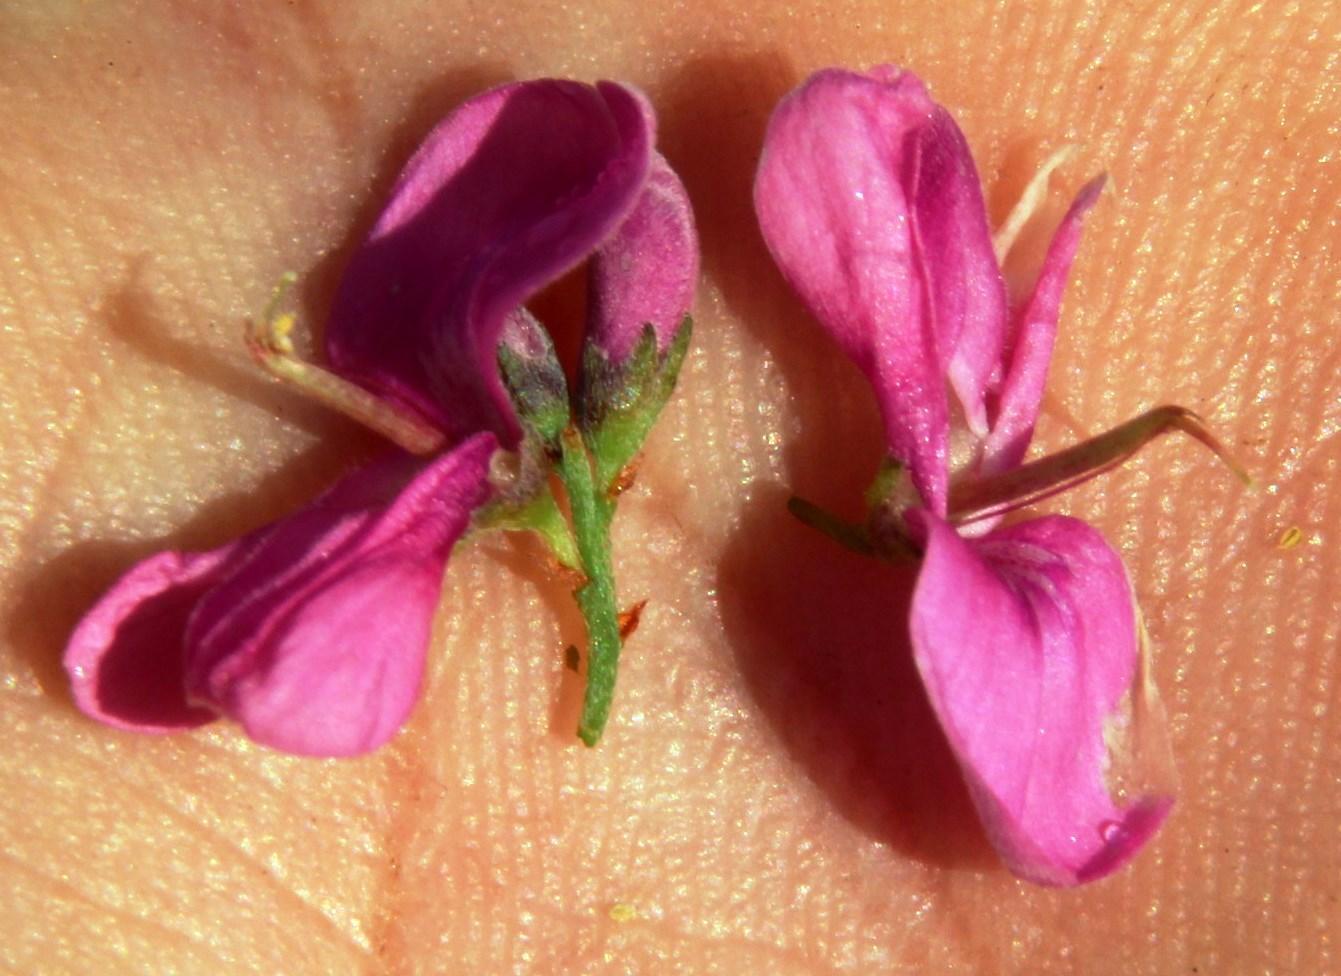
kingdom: Plantae
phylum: Tracheophyta
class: Magnoliopsida
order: Fabales
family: Fabaceae
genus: Indigofera
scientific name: Indigofera denudata
